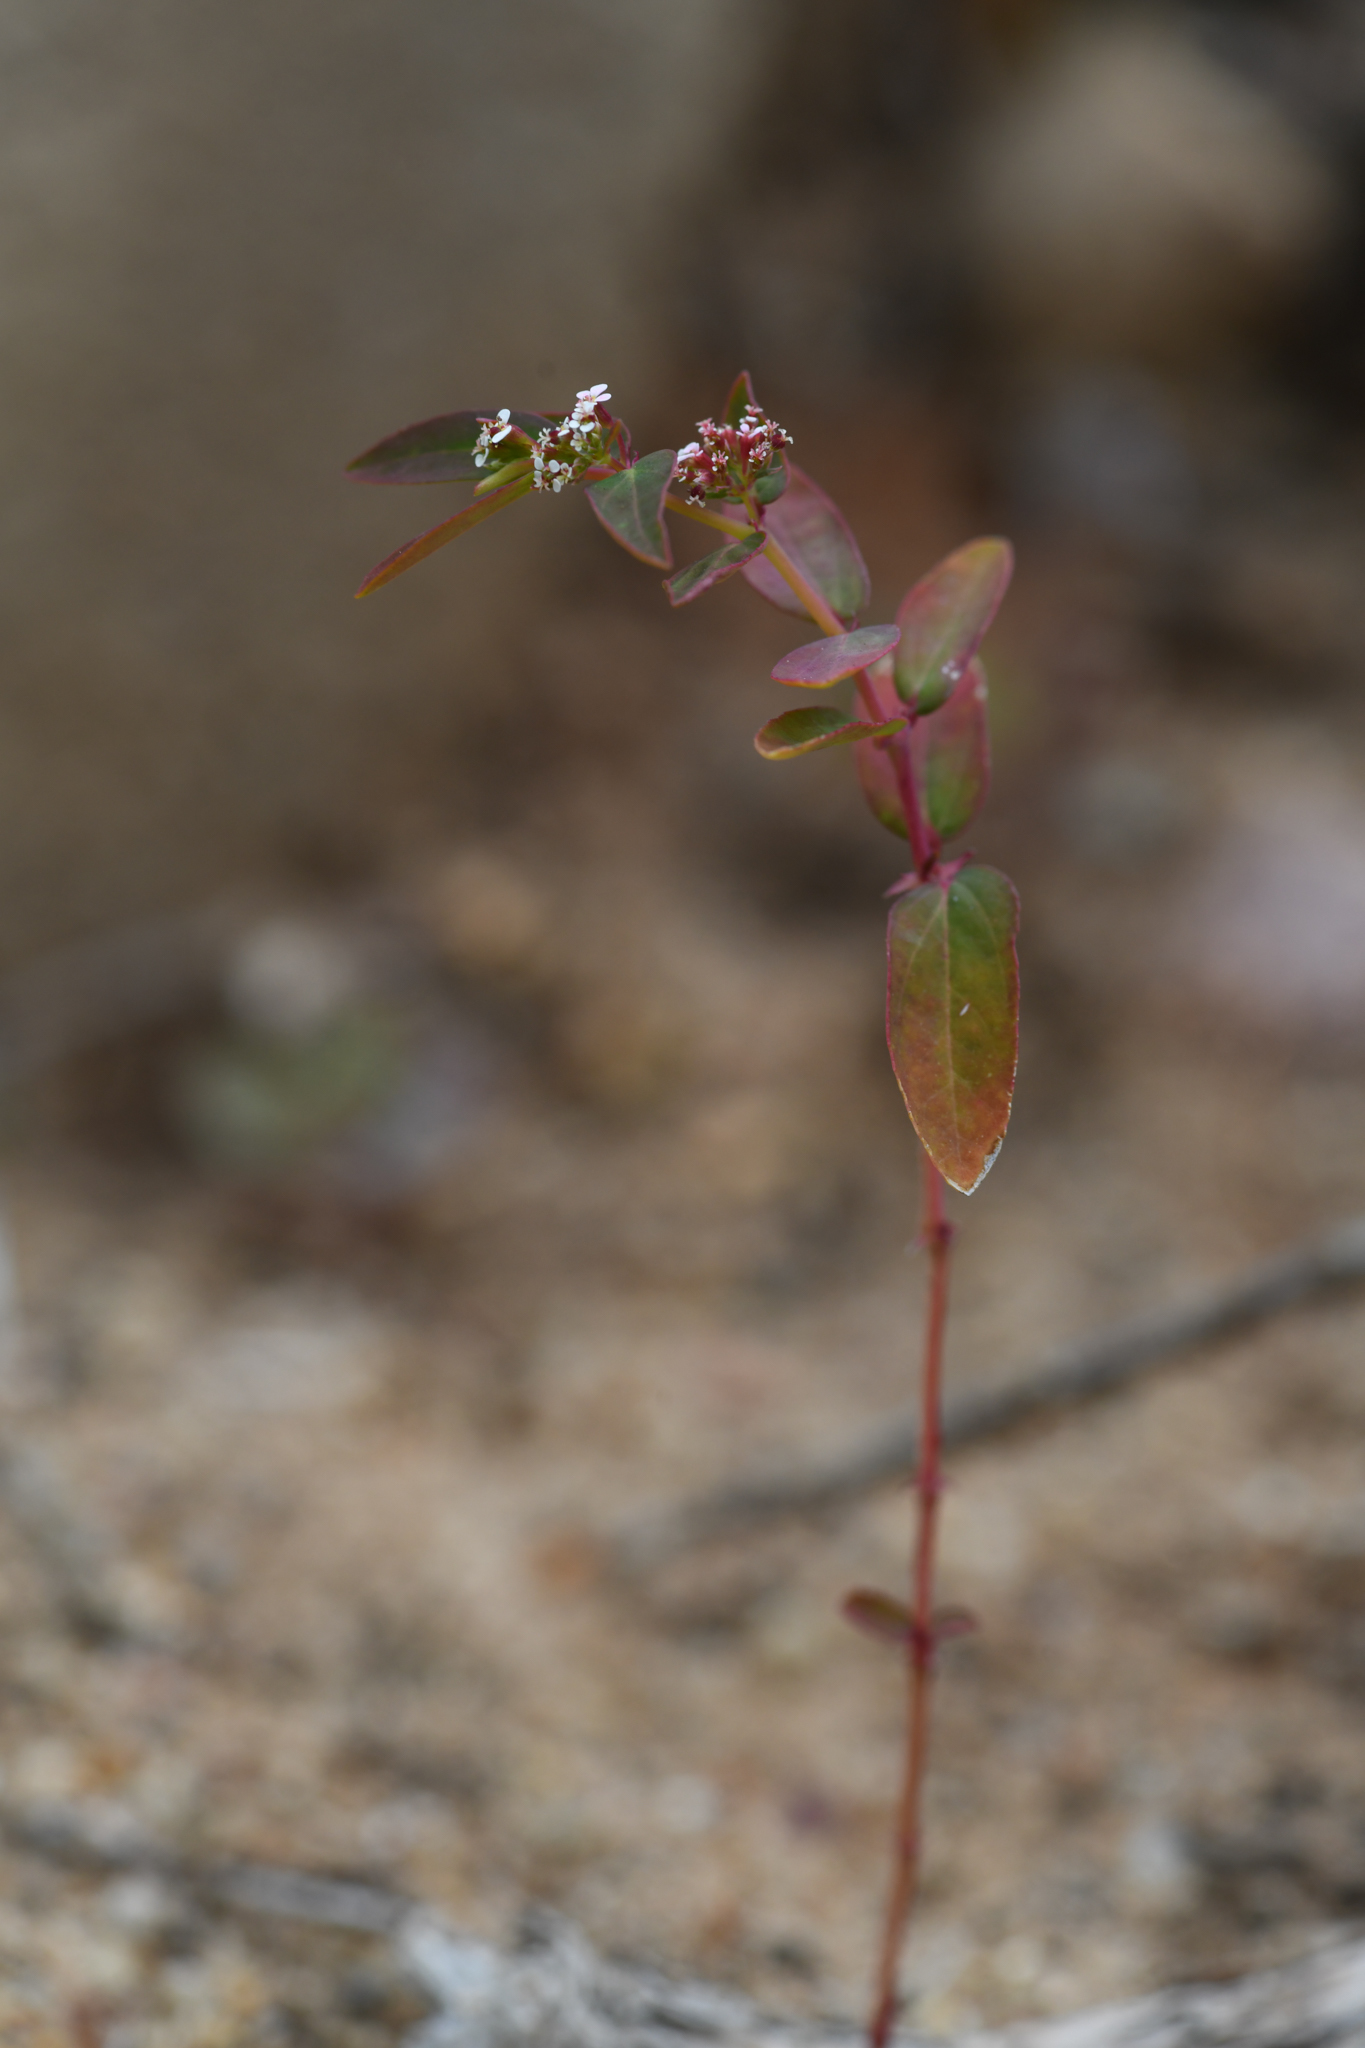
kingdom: Plantae
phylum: Tracheophyta
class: Magnoliopsida
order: Malpighiales
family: Euphorbiaceae
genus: Euphorbia
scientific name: Euphorbia hypericifolia
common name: Graceful sandmat
